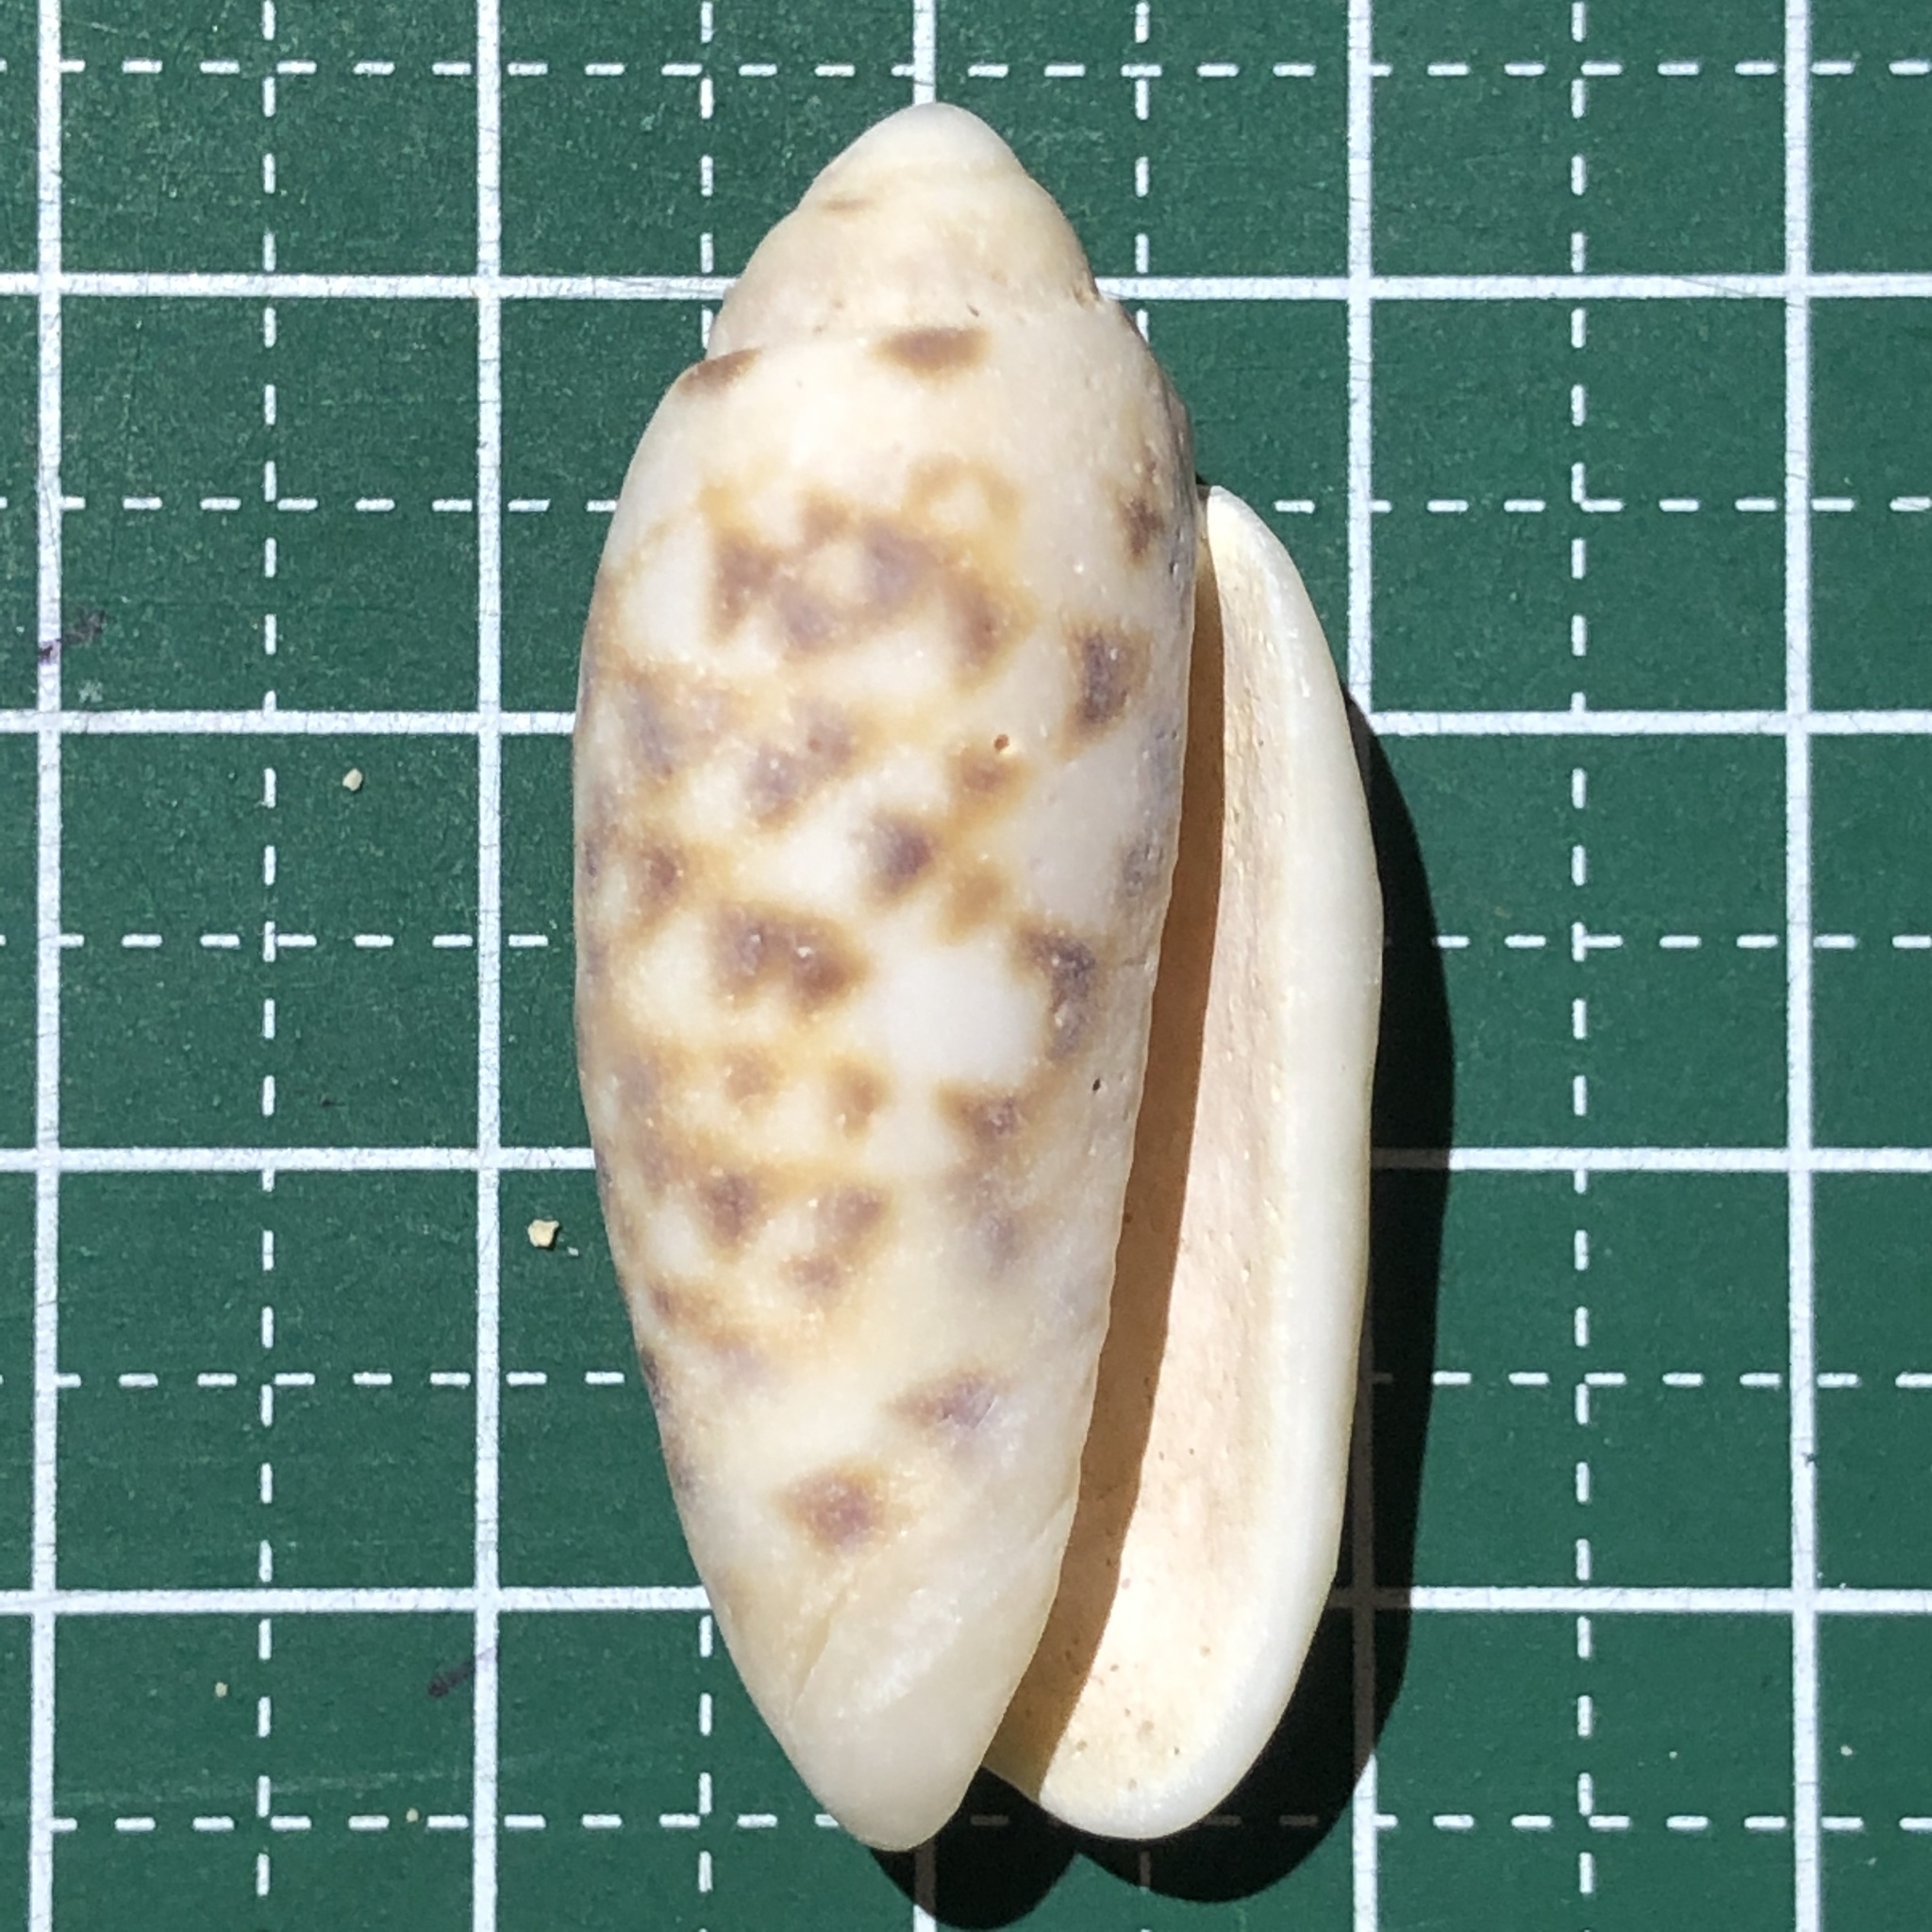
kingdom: Animalia
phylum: Mollusca
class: Gastropoda
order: Neogastropoda
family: Olividae
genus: Oliva
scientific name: Oliva amethystina
